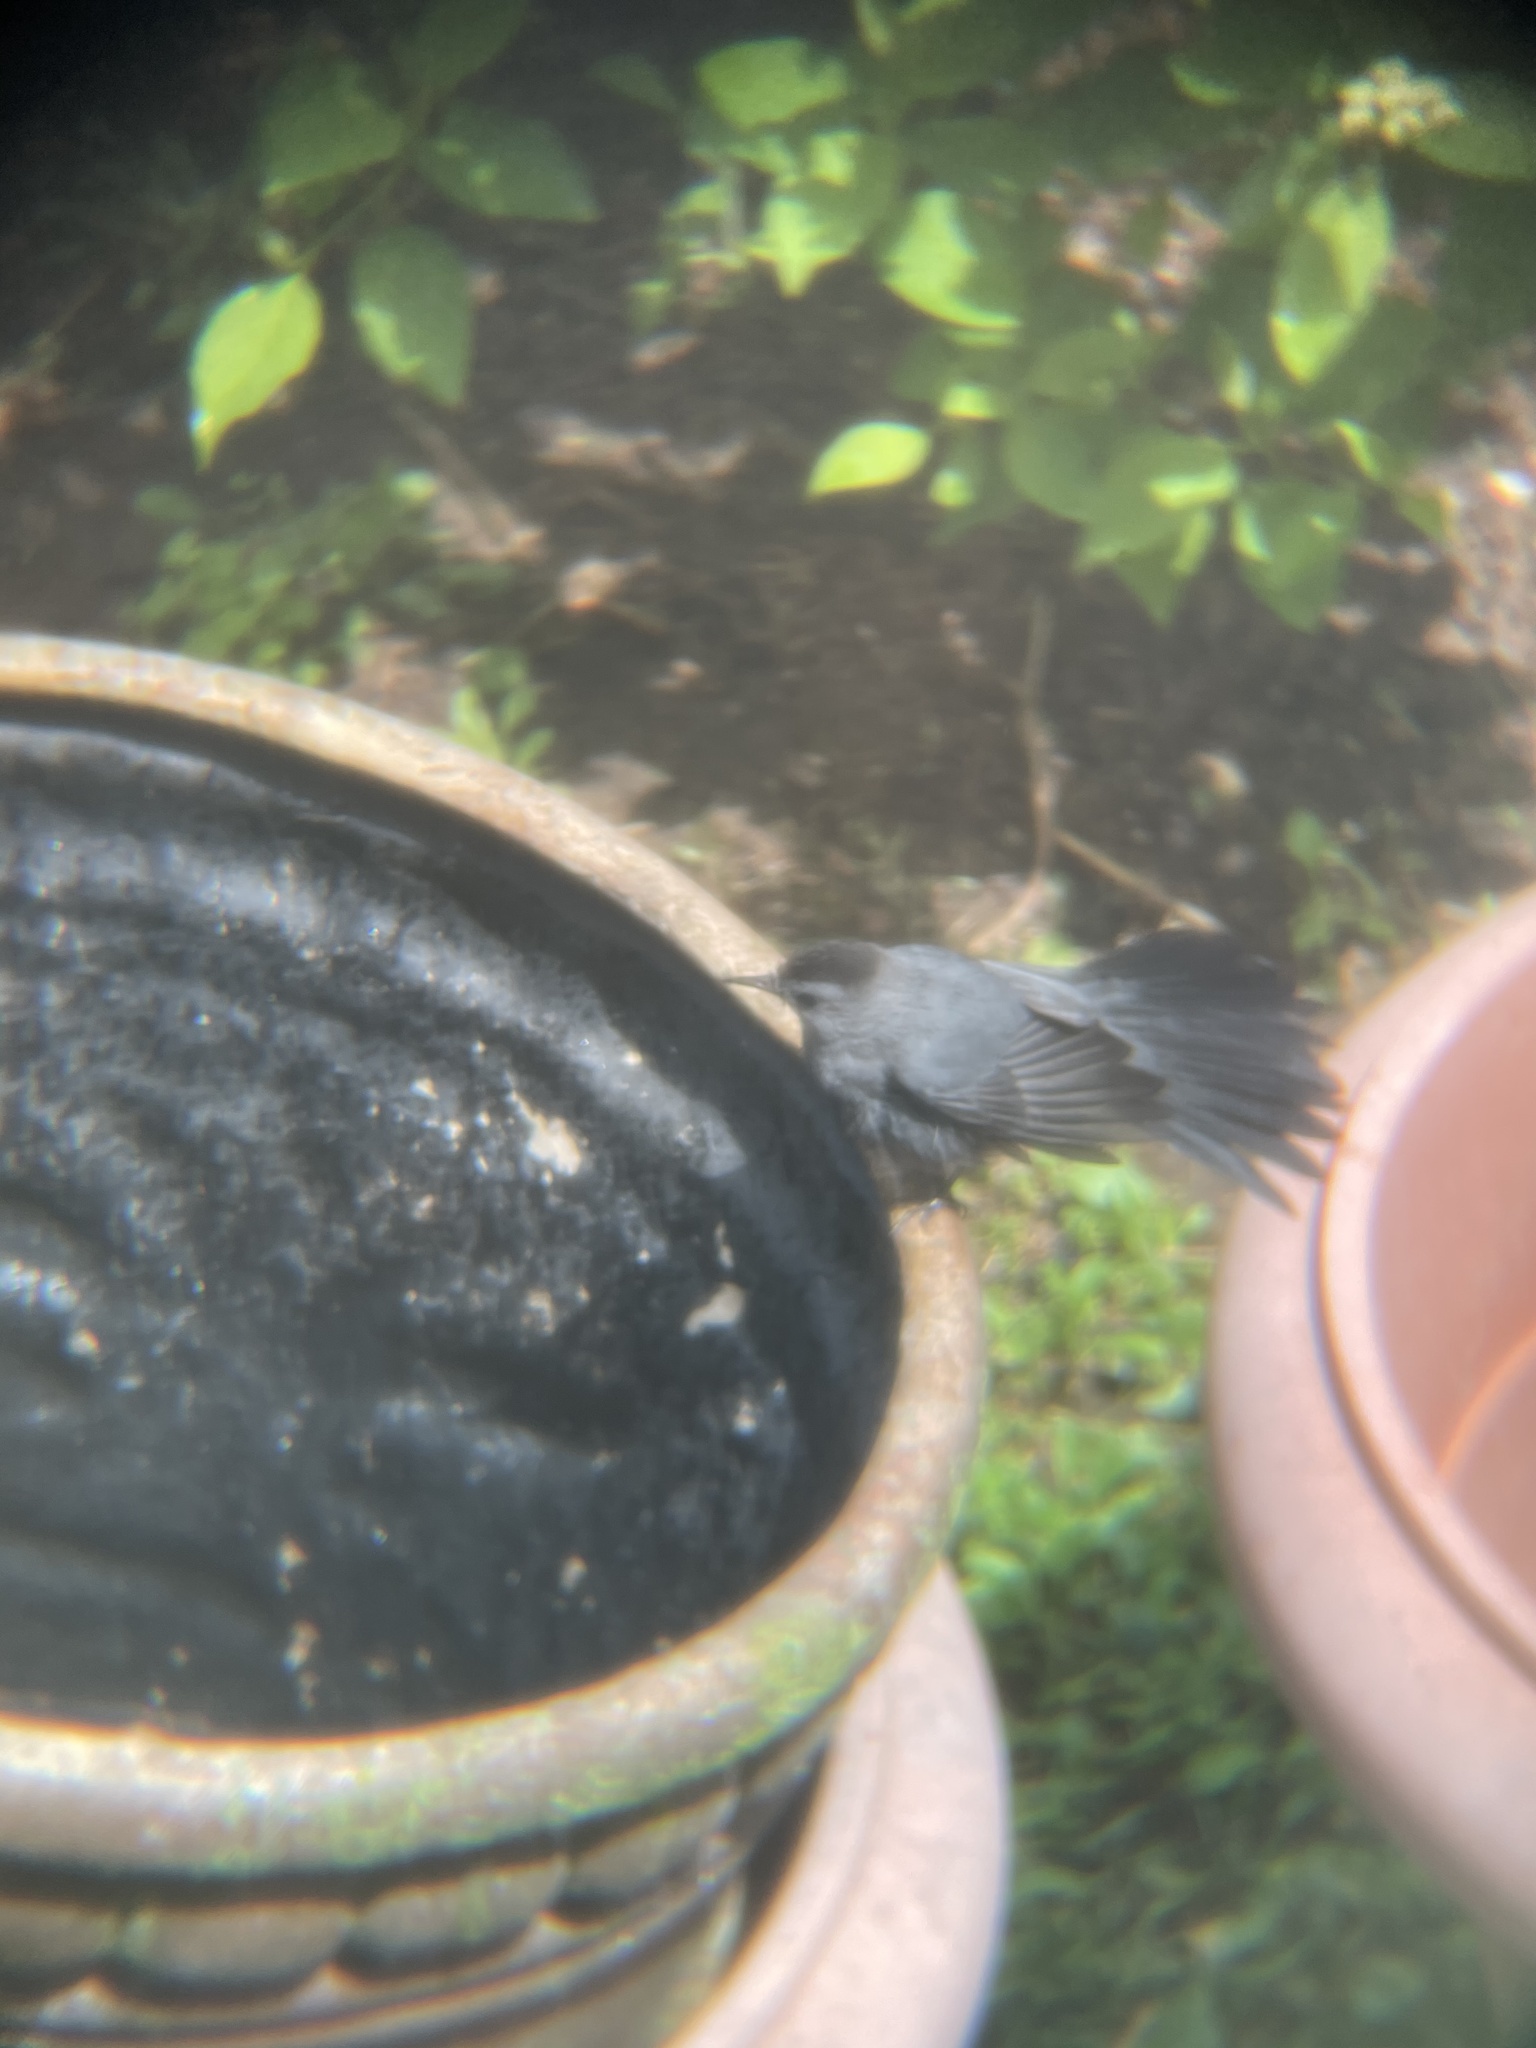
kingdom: Animalia
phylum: Chordata
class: Aves
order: Passeriformes
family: Mimidae
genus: Dumetella
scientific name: Dumetella carolinensis
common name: Gray catbird
